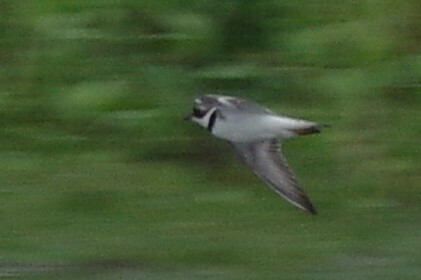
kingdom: Animalia
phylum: Chordata
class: Aves
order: Charadriiformes
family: Charadriidae
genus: Charadrius
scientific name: Charadrius semipalmatus
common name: Semipalmated plover
